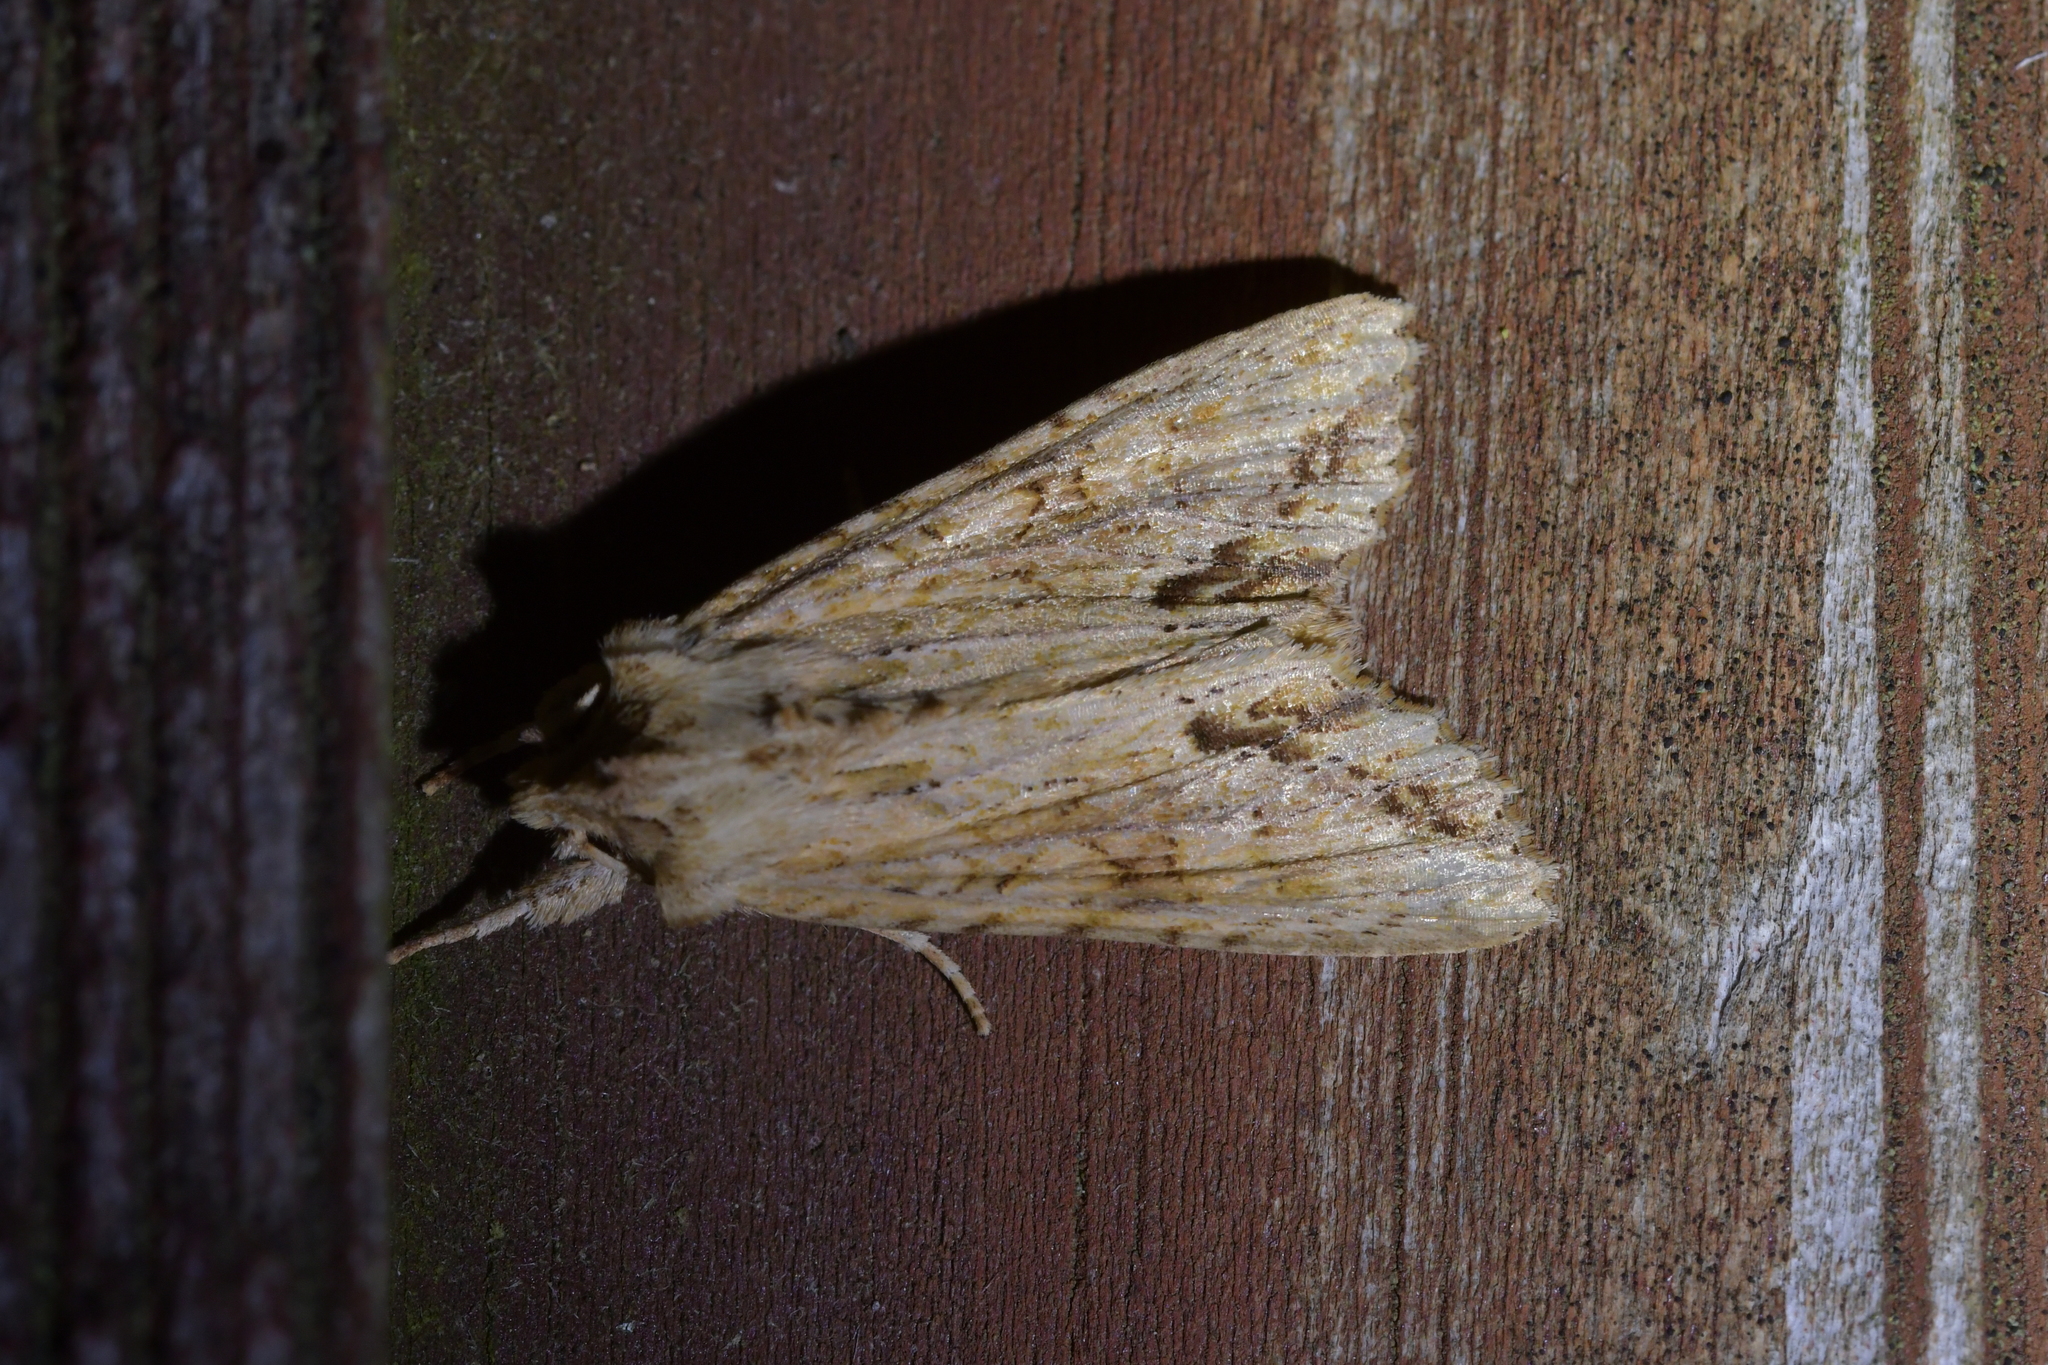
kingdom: Animalia
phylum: Arthropoda
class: Insecta
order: Lepidoptera
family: Noctuidae
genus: Ichneutica
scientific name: Ichneutica mollis
